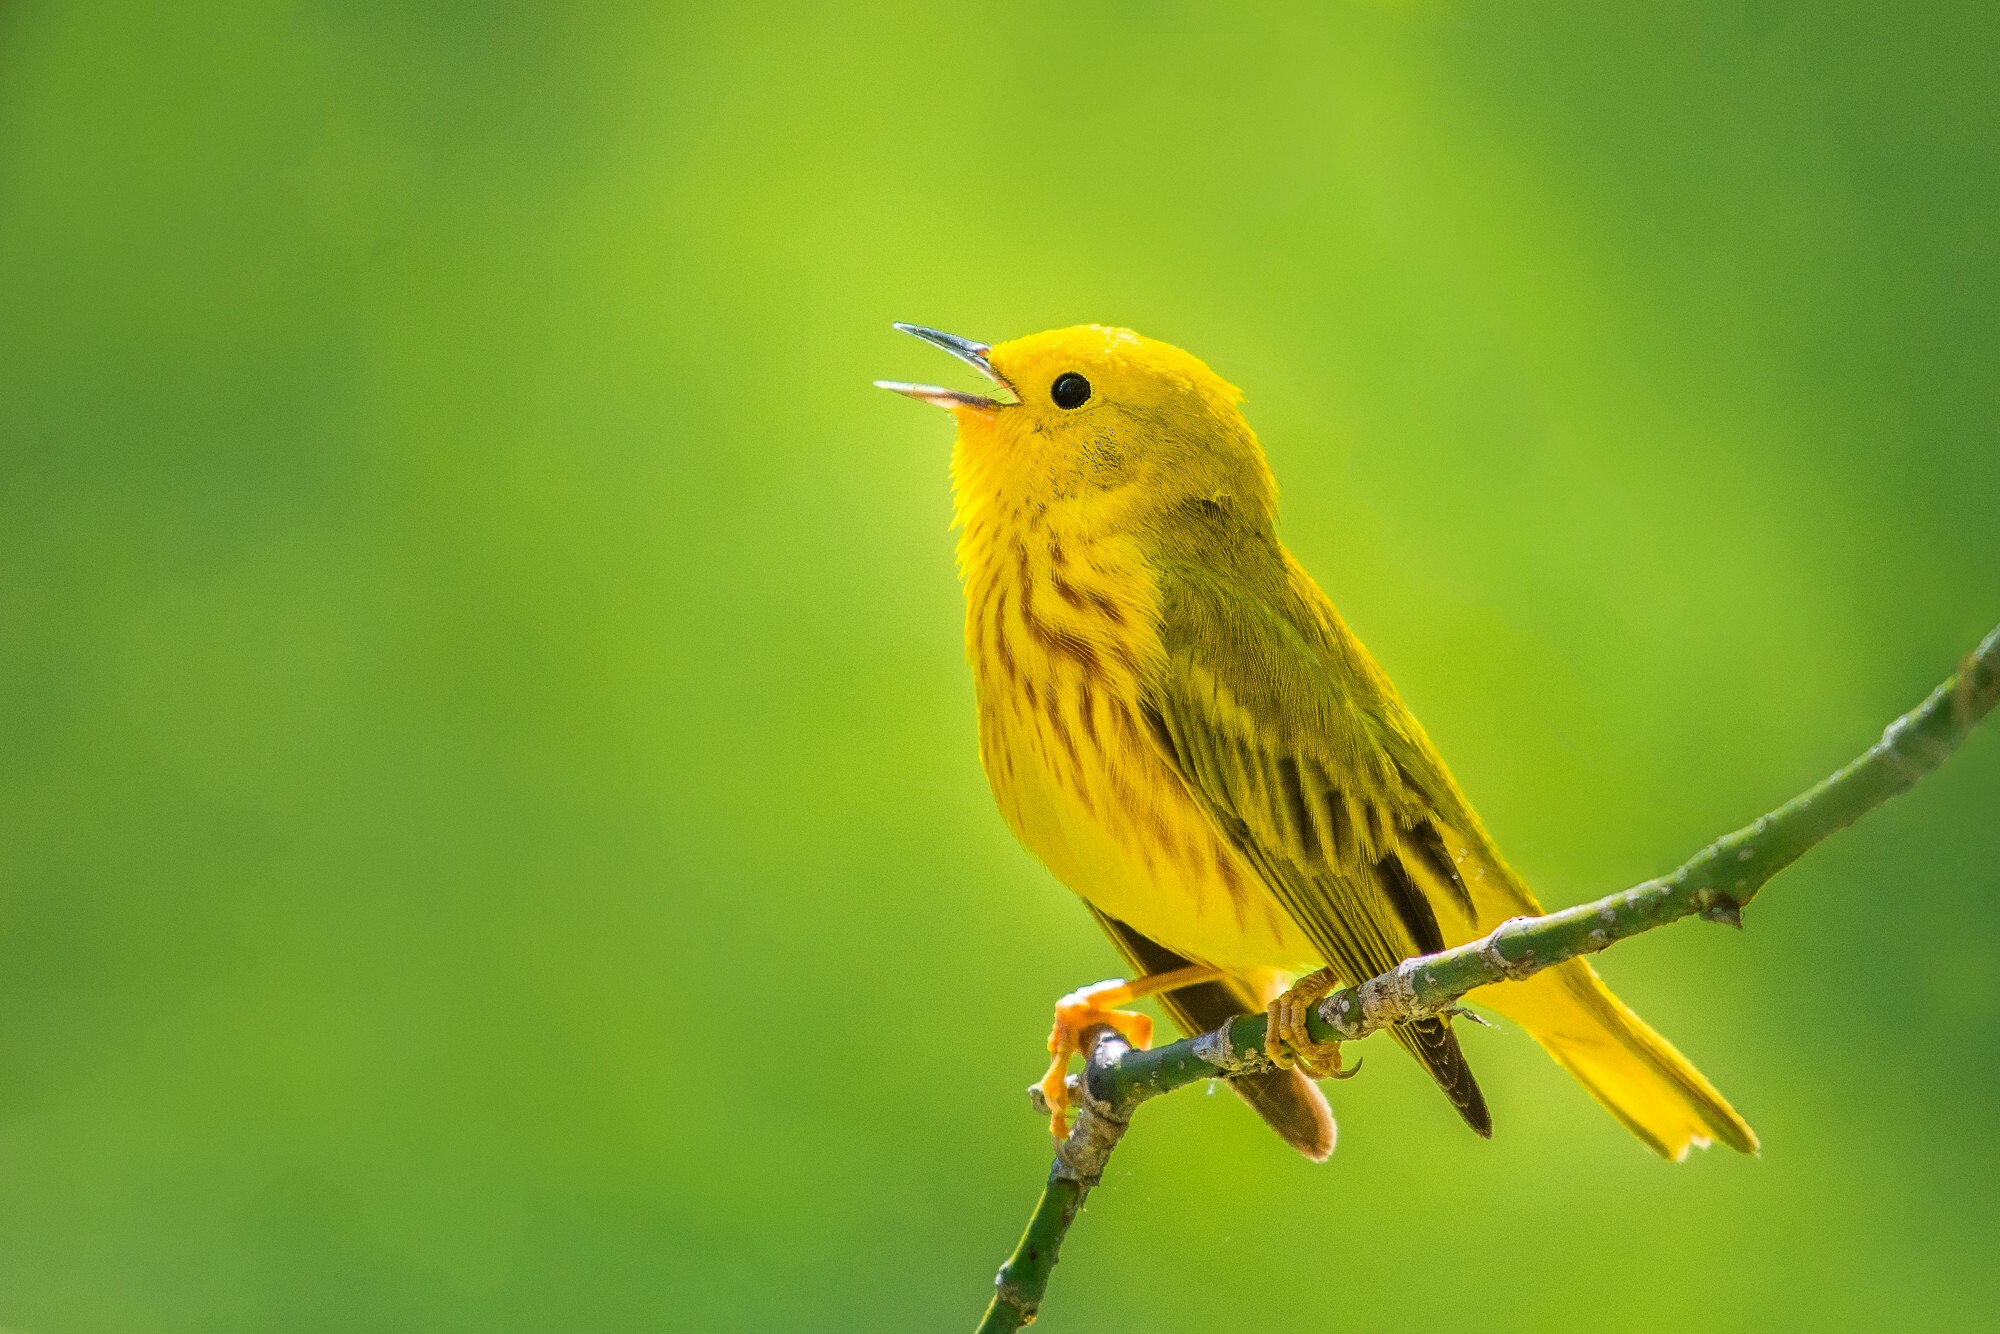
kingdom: Animalia
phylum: Chordata
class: Aves
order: Passeriformes
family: Parulidae
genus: Setophaga
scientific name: Setophaga petechia
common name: Yellow warbler
